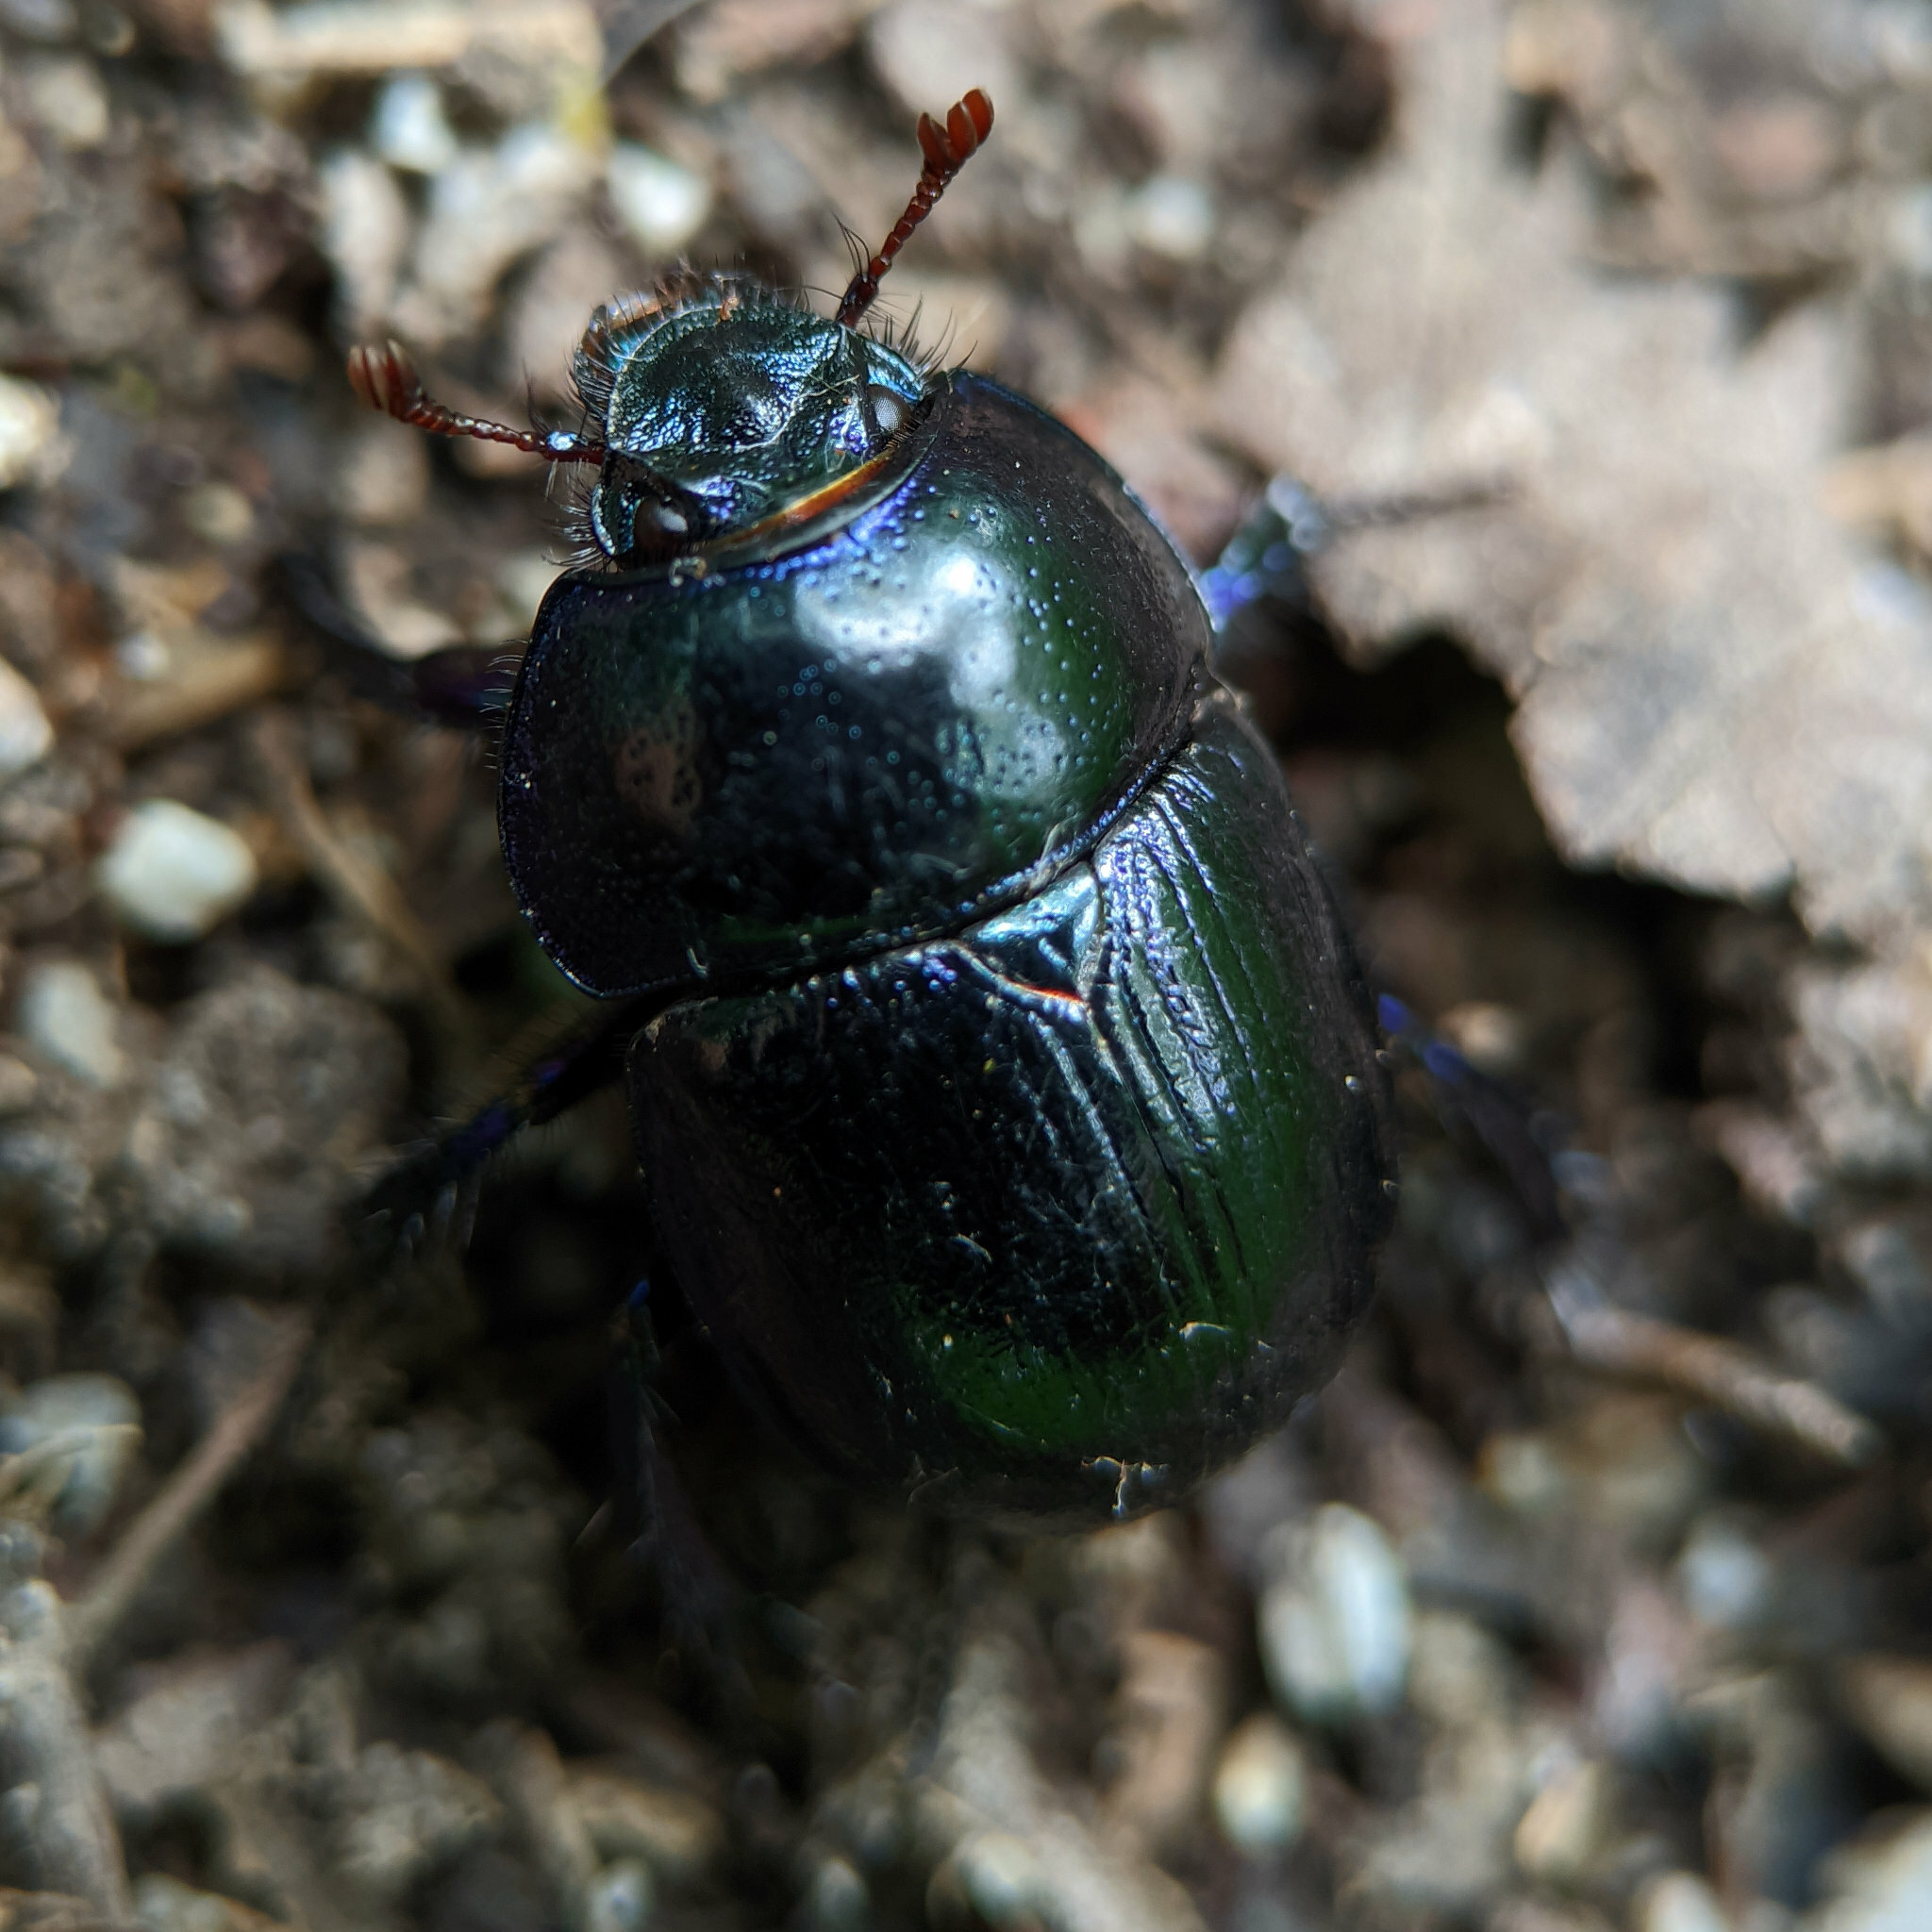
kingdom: Animalia
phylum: Arthropoda
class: Insecta
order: Coleoptera
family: Geotrupidae
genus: Anoplotrupes
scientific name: Anoplotrupes stercorosus
